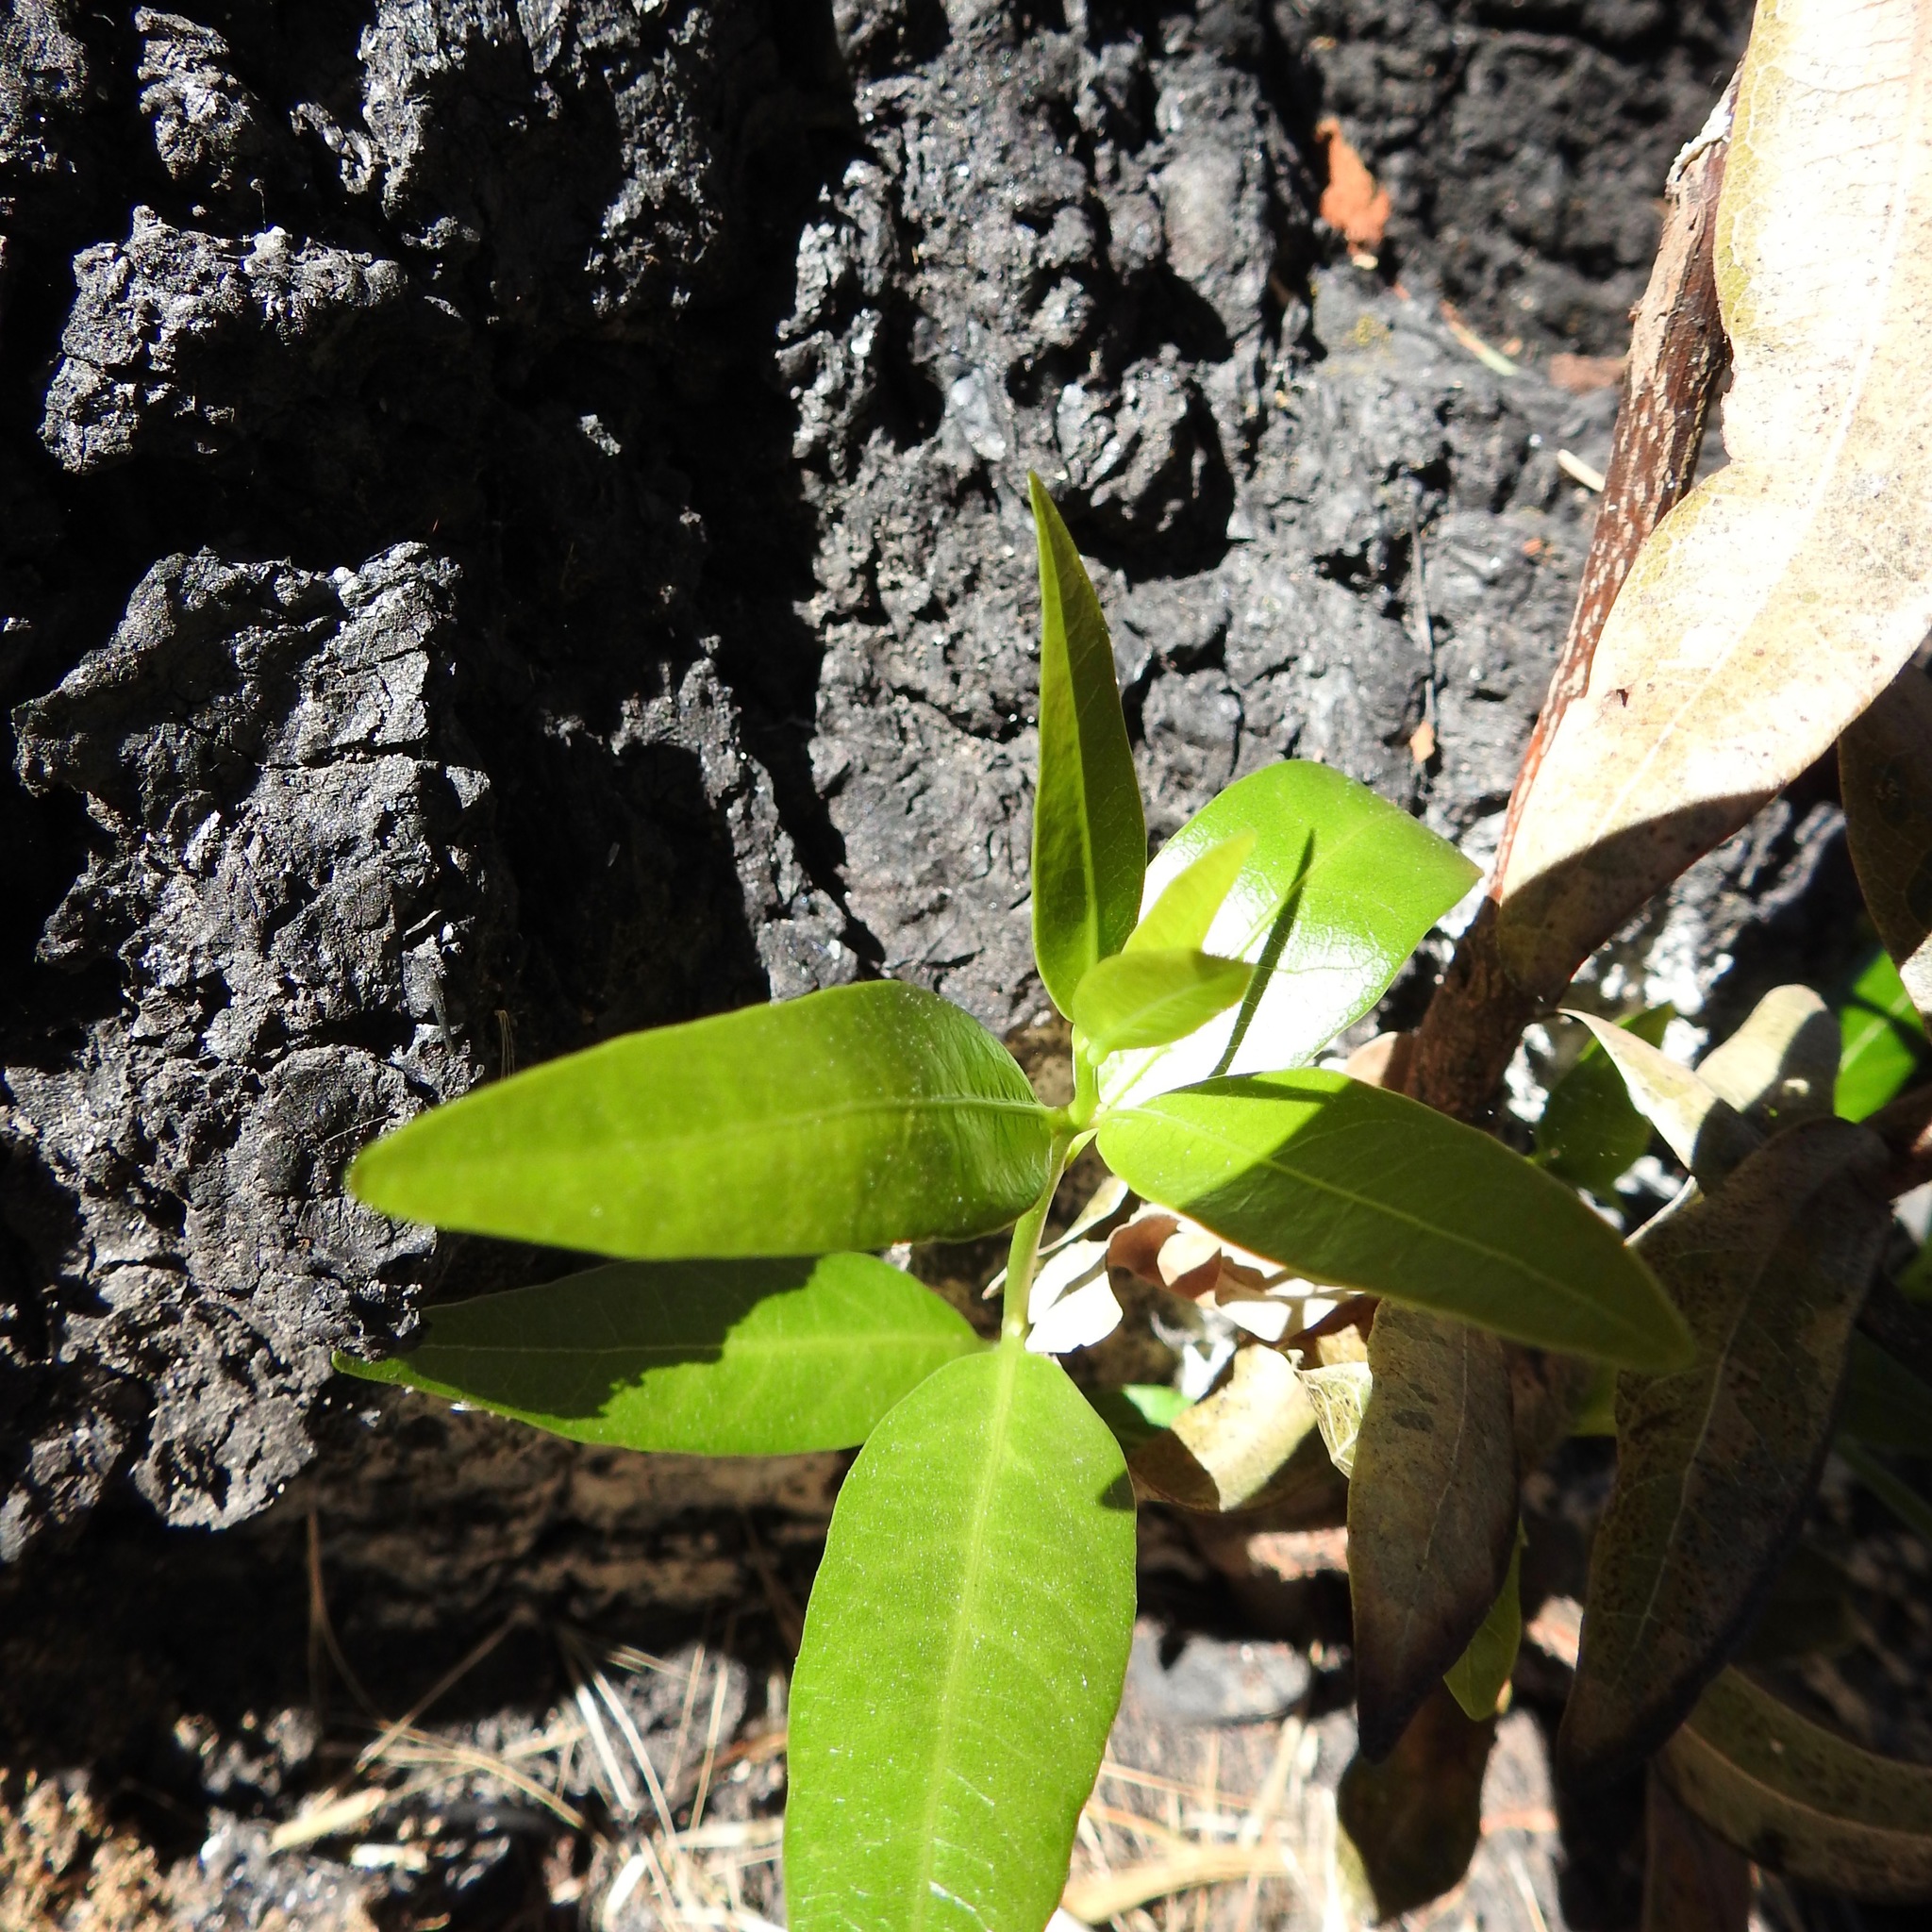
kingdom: Plantae
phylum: Tracheophyta
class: Magnoliopsida
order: Laurales
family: Lauraceae
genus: Umbellularia
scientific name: Umbellularia californica
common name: California bay
